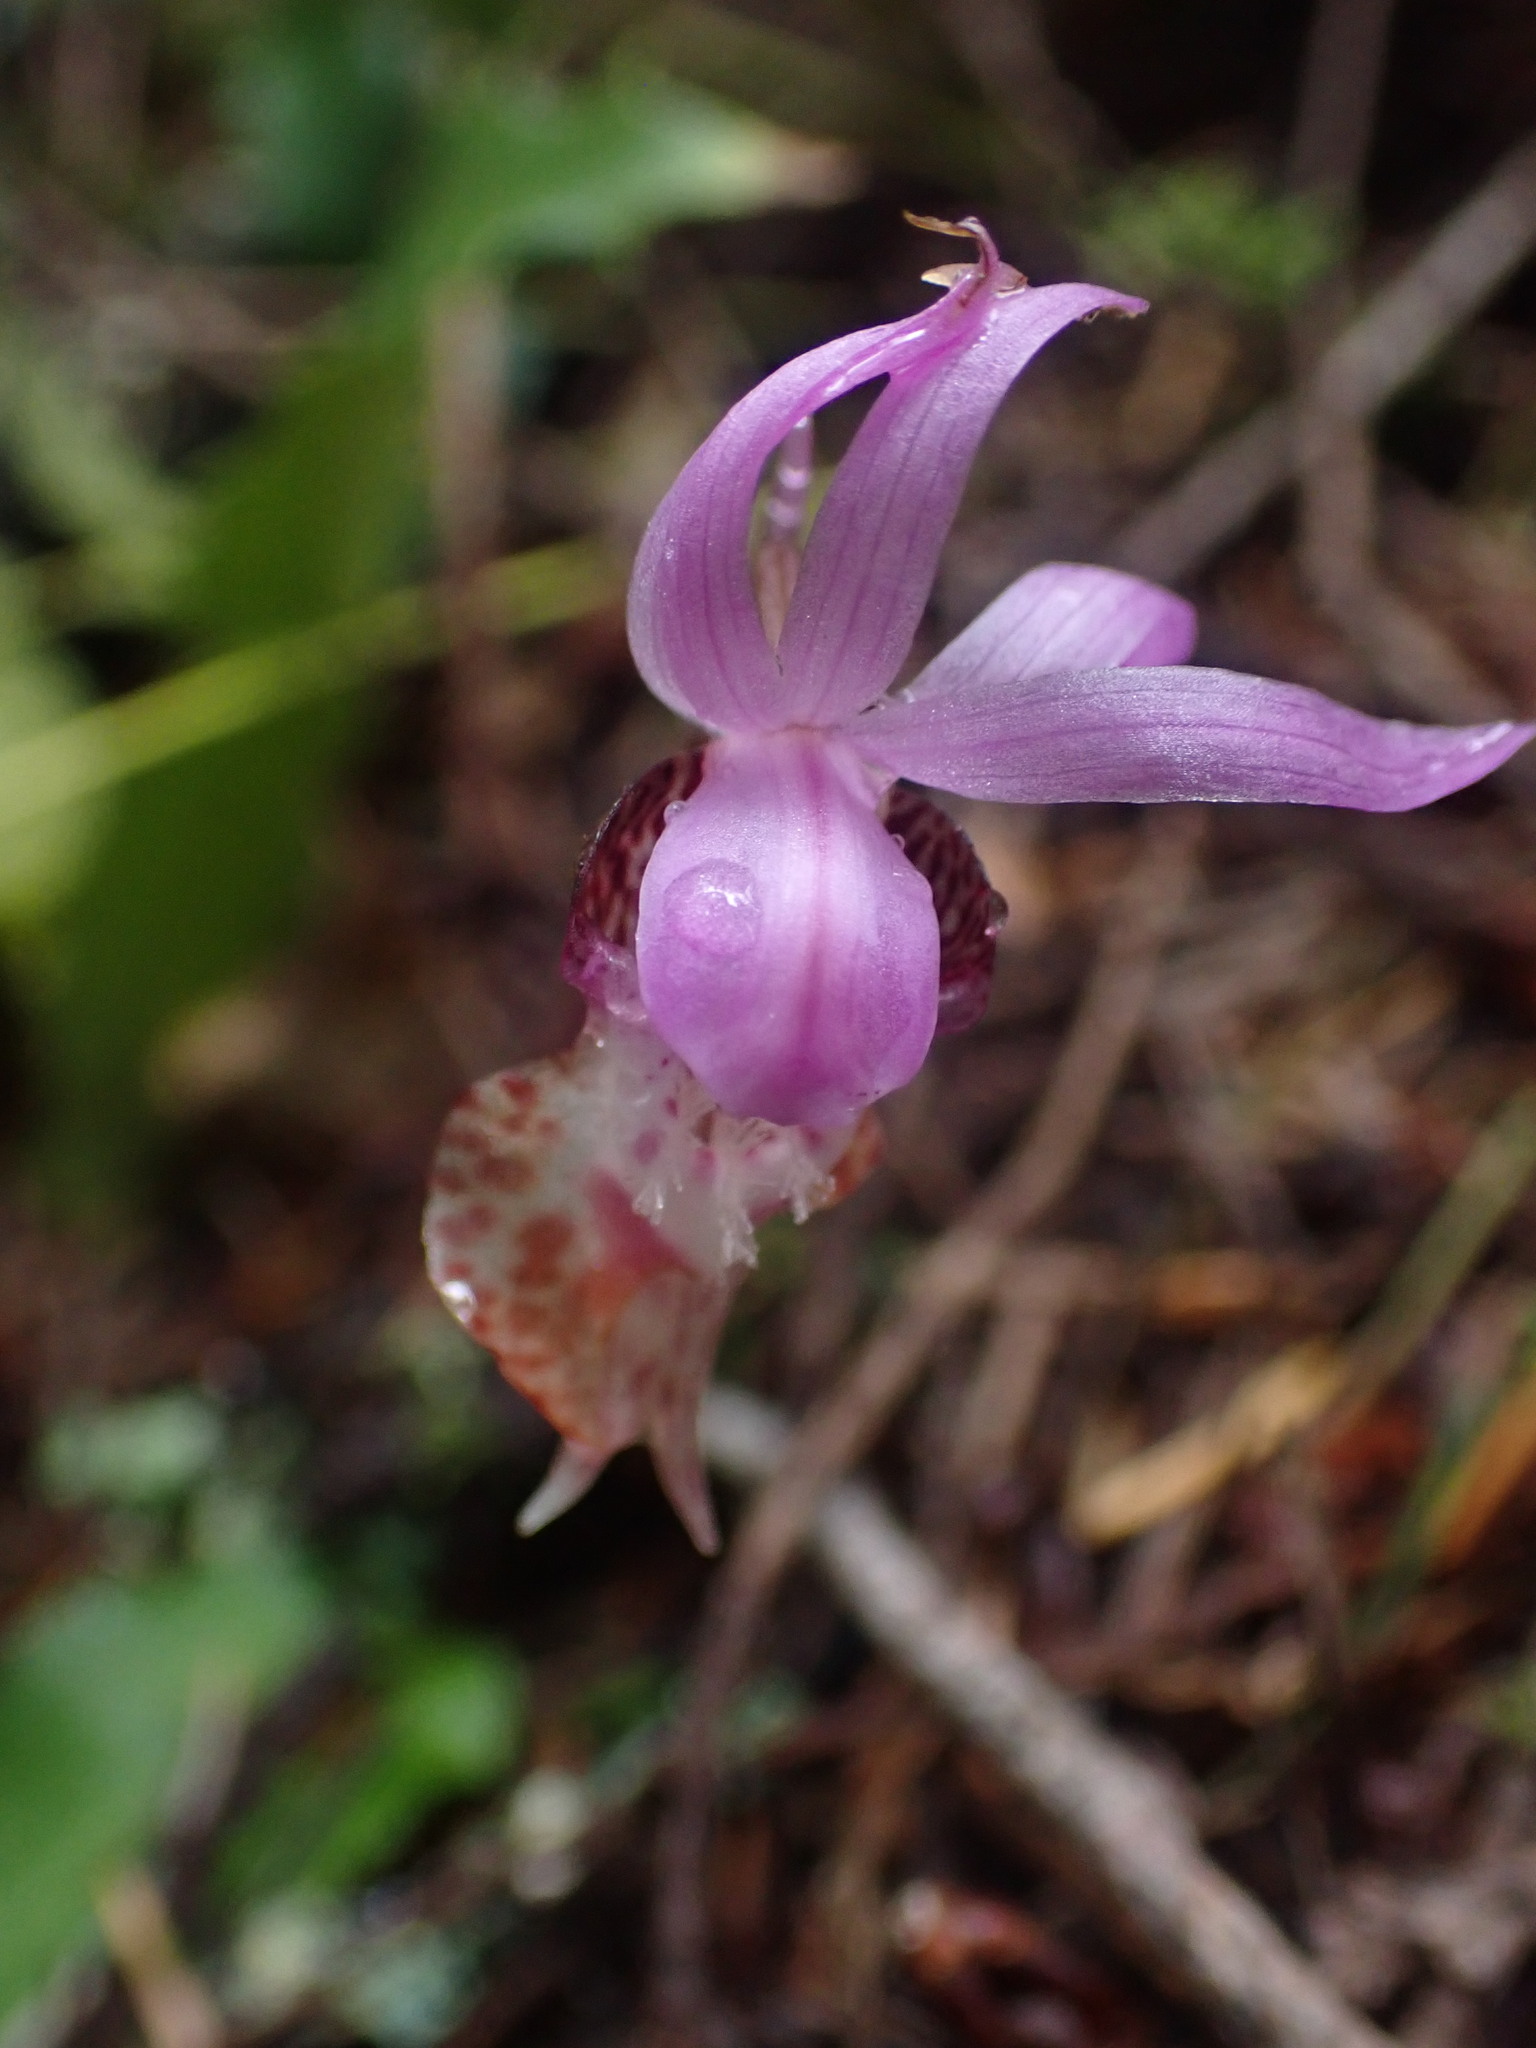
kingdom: Plantae
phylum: Tracheophyta
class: Liliopsida
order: Asparagales
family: Orchidaceae
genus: Calypso
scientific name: Calypso bulbosa
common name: Calypso
